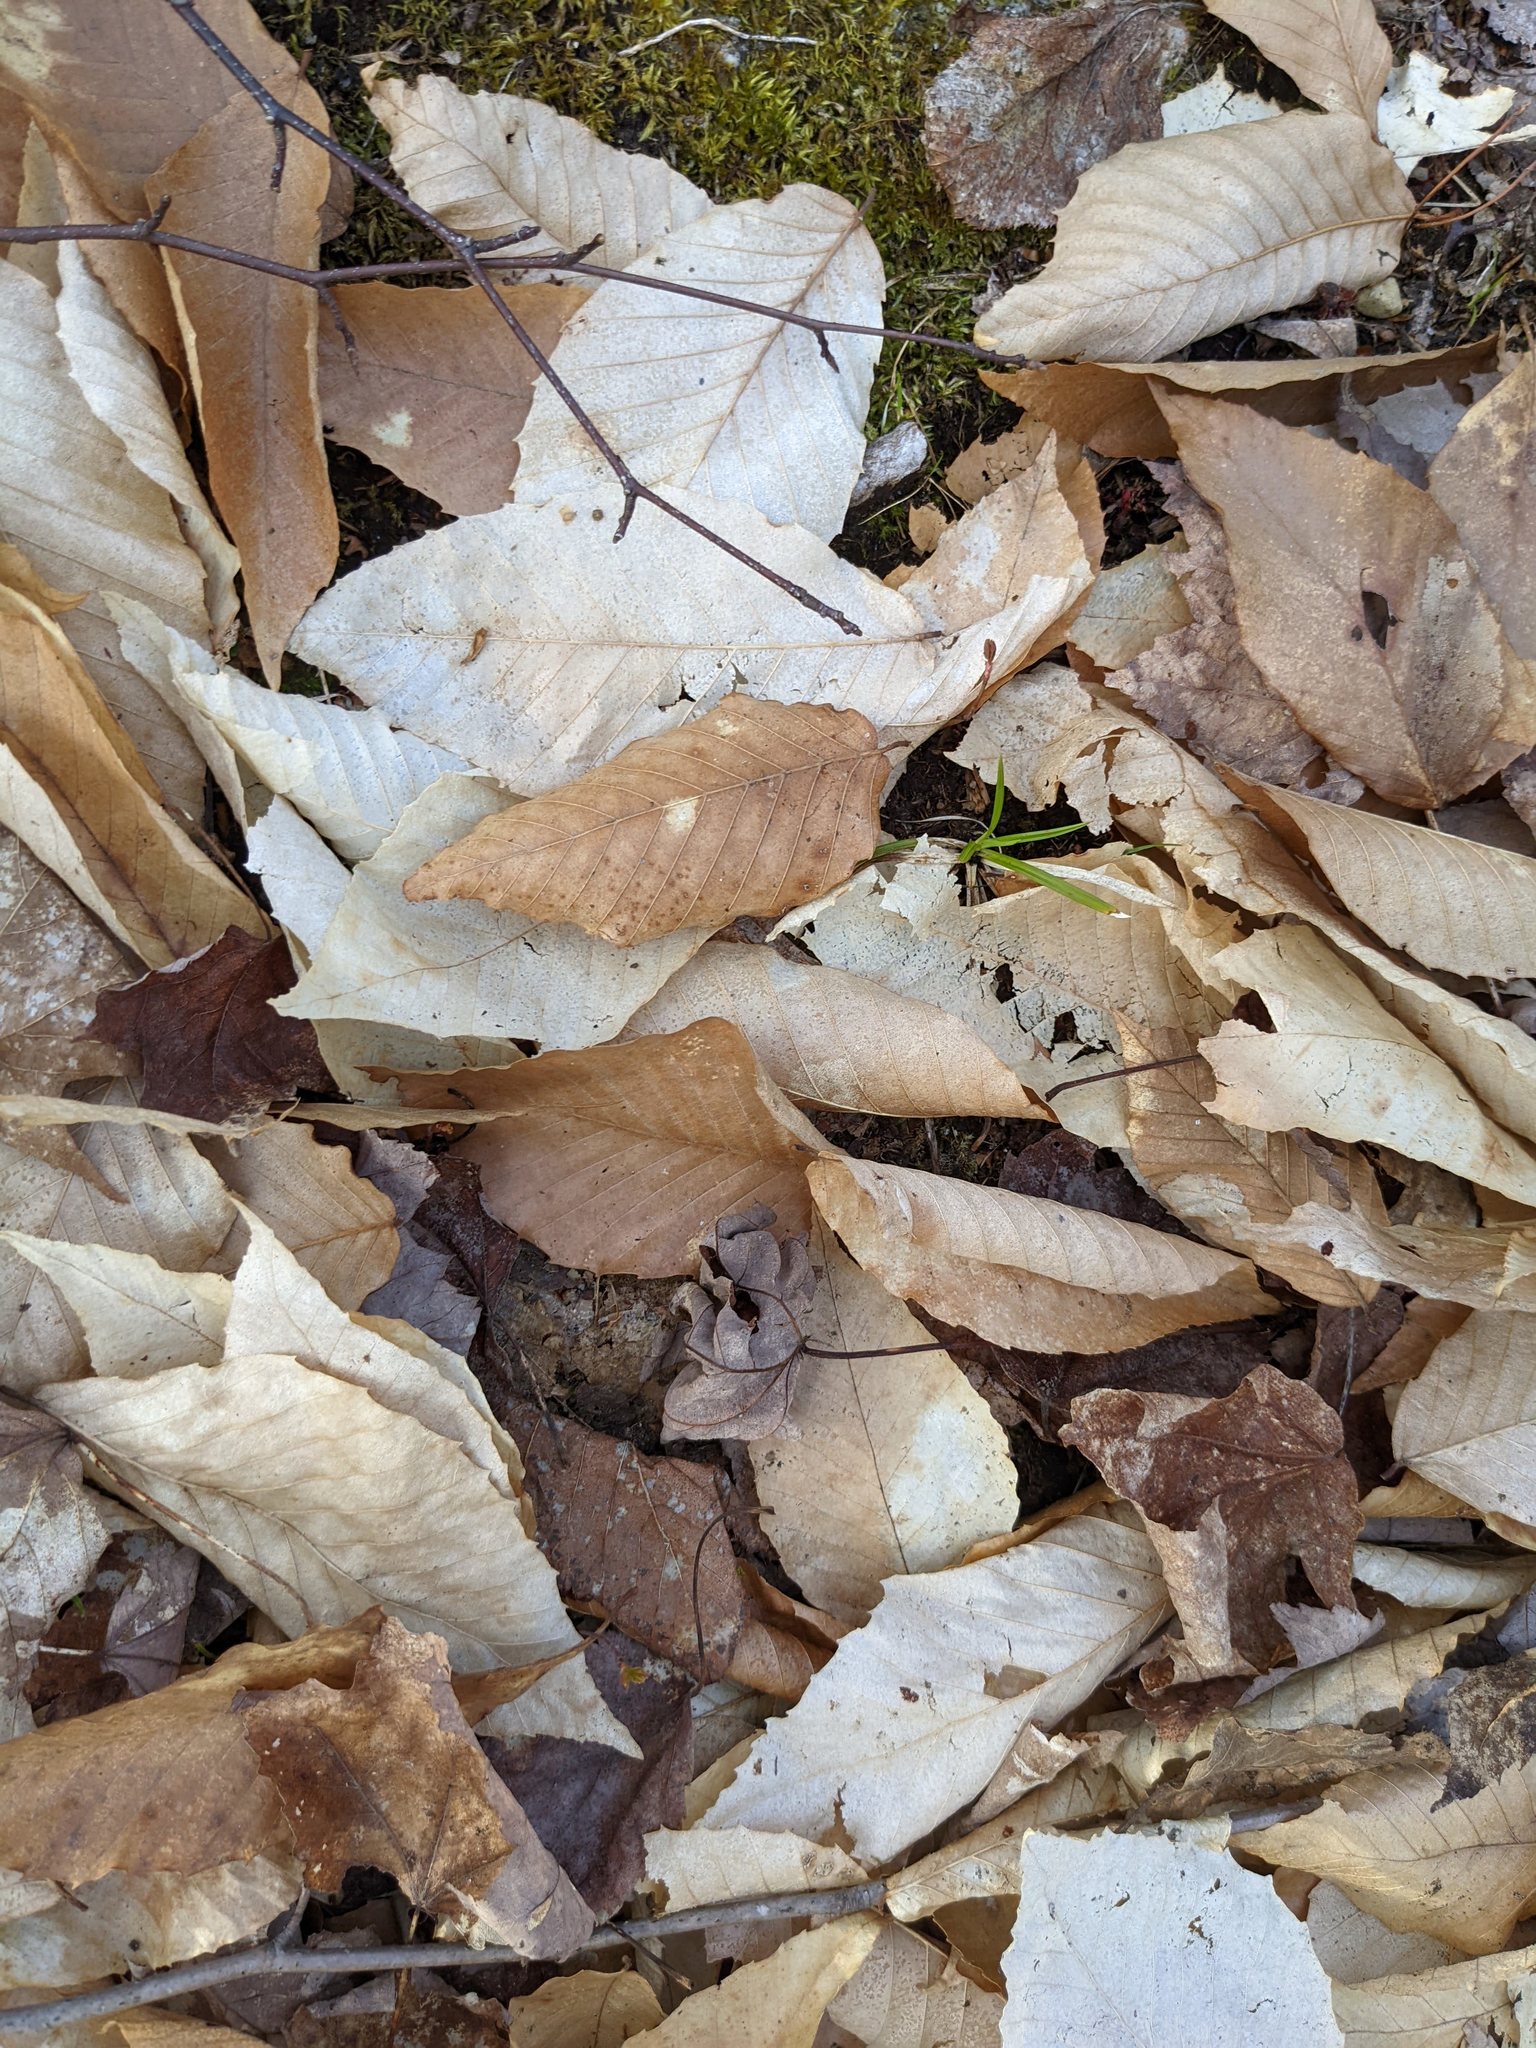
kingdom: Plantae
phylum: Tracheophyta
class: Magnoliopsida
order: Fagales
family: Fagaceae
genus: Fagus
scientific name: Fagus grandifolia
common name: American beech
